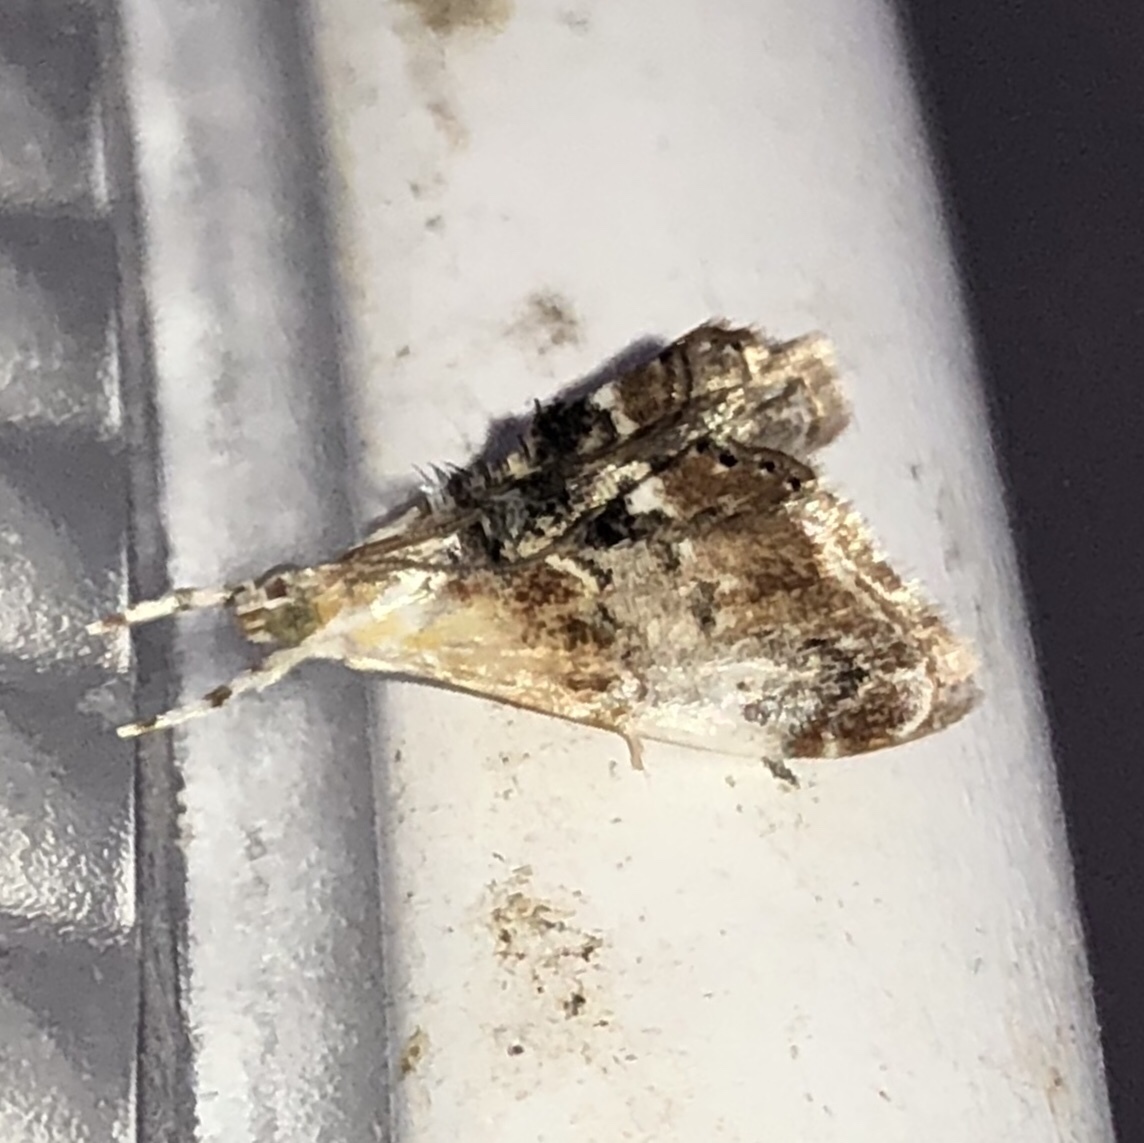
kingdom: Animalia
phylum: Arthropoda
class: Insecta
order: Lepidoptera
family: Crambidae
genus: Dicymolomia
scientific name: Dicymolomia julianalis
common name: Julia's dicymolomia moth
